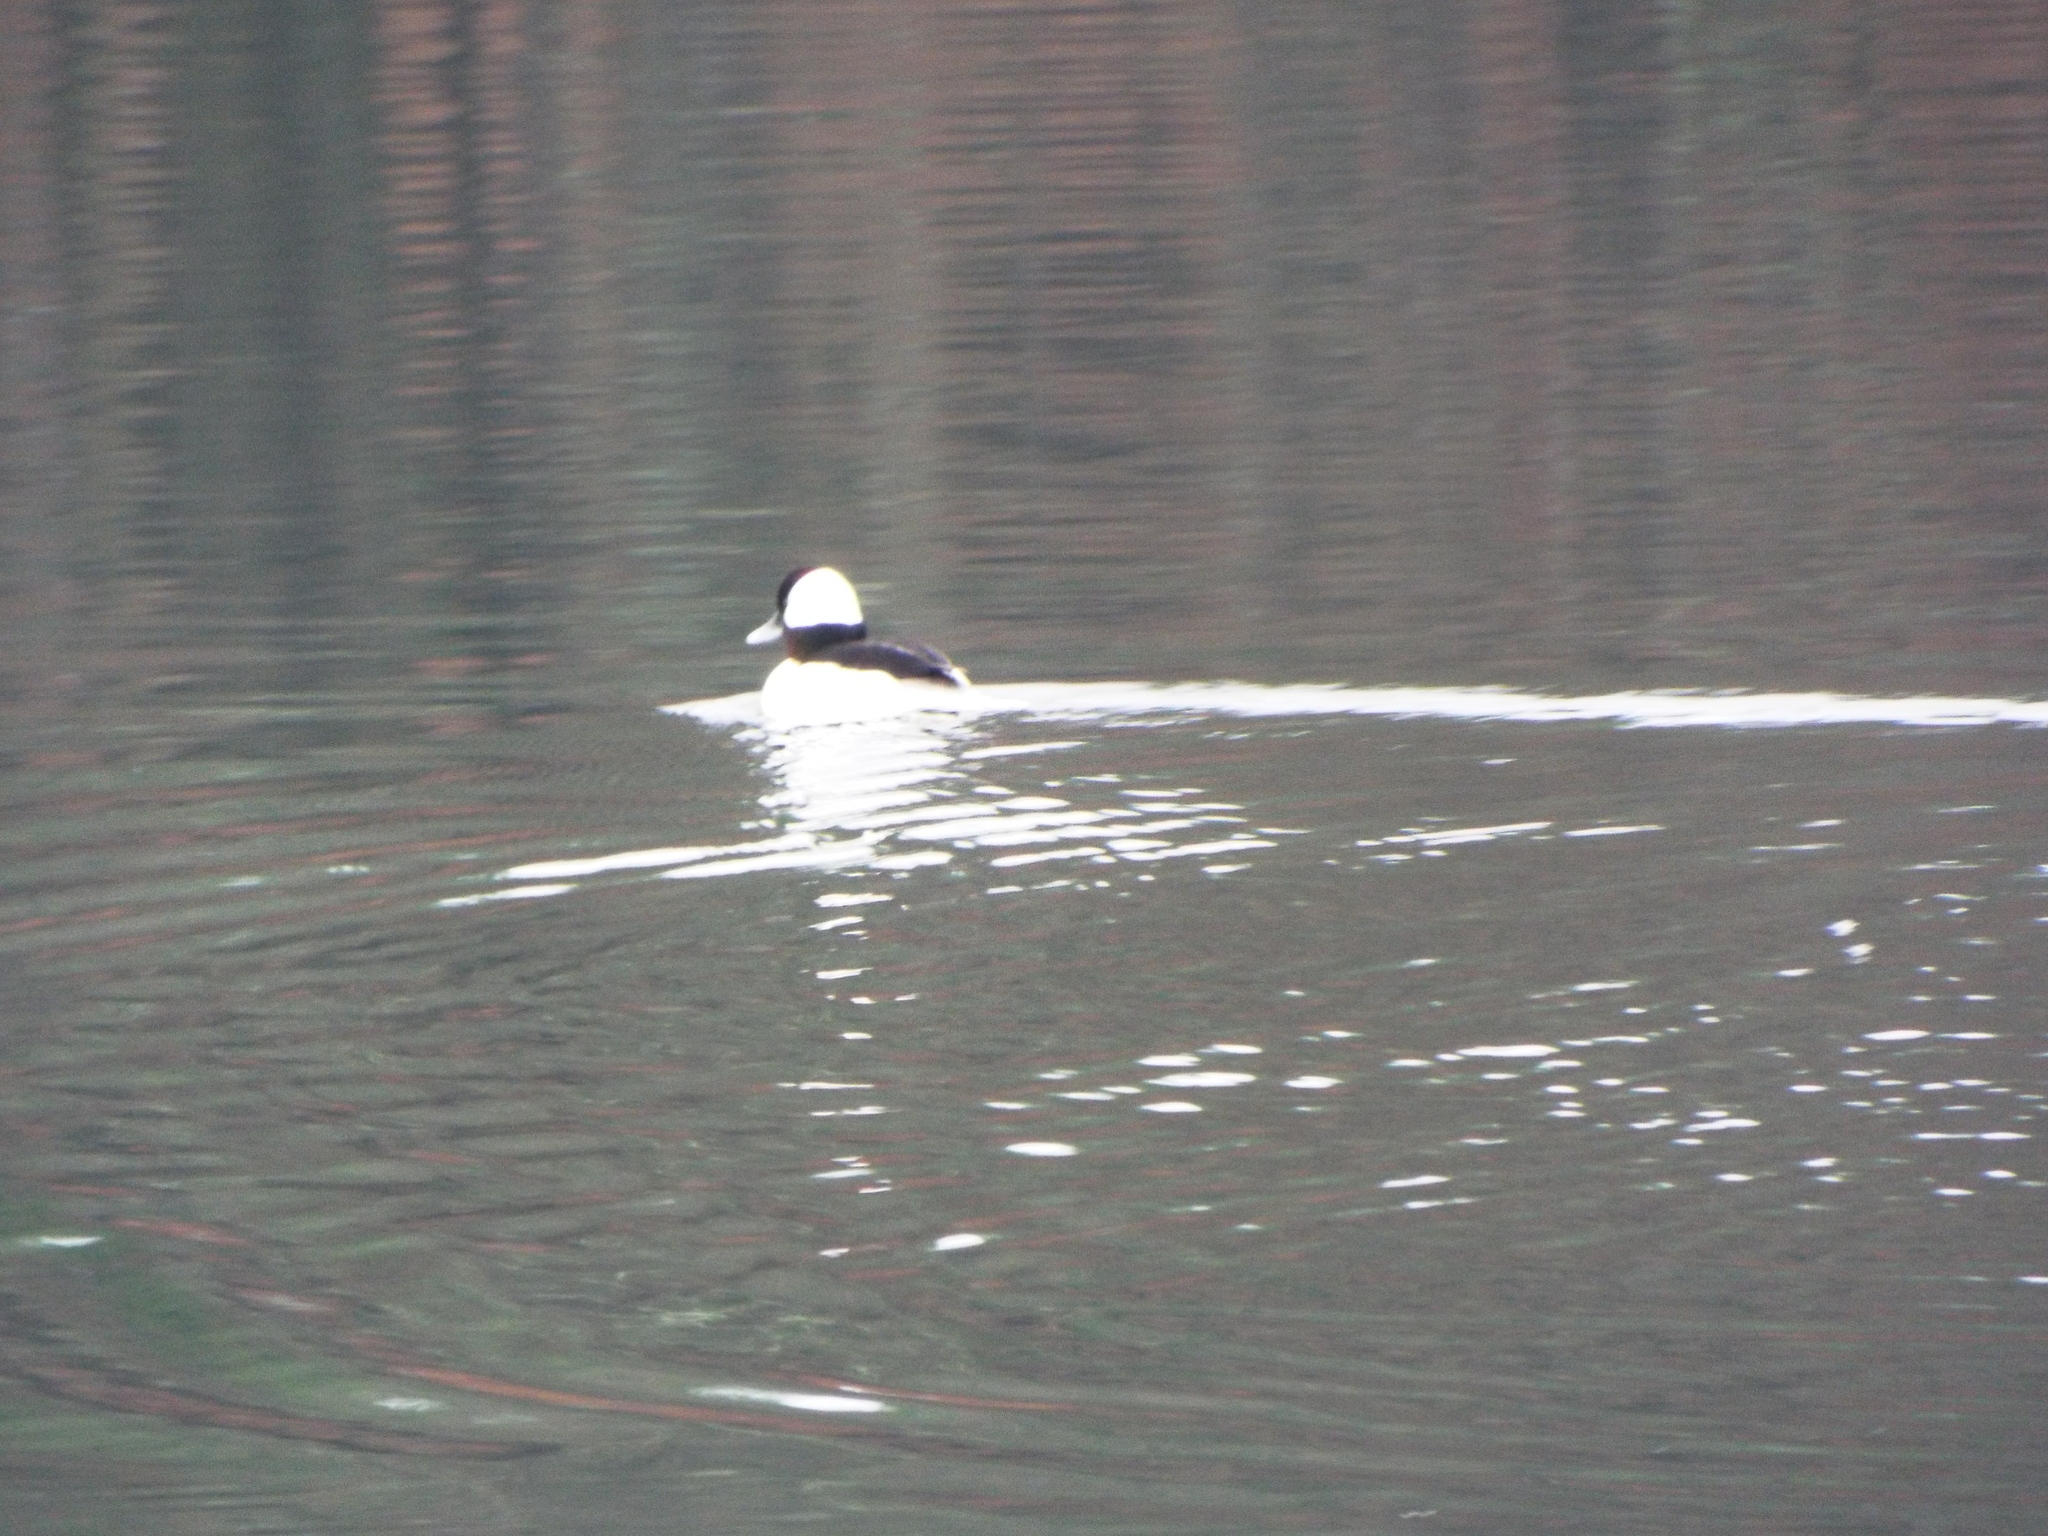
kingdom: Animalia
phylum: Chordata
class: Aves
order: Anseriformes
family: Anatidae
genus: Bucephala
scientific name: Bucephala albeola
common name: Bufflehead
